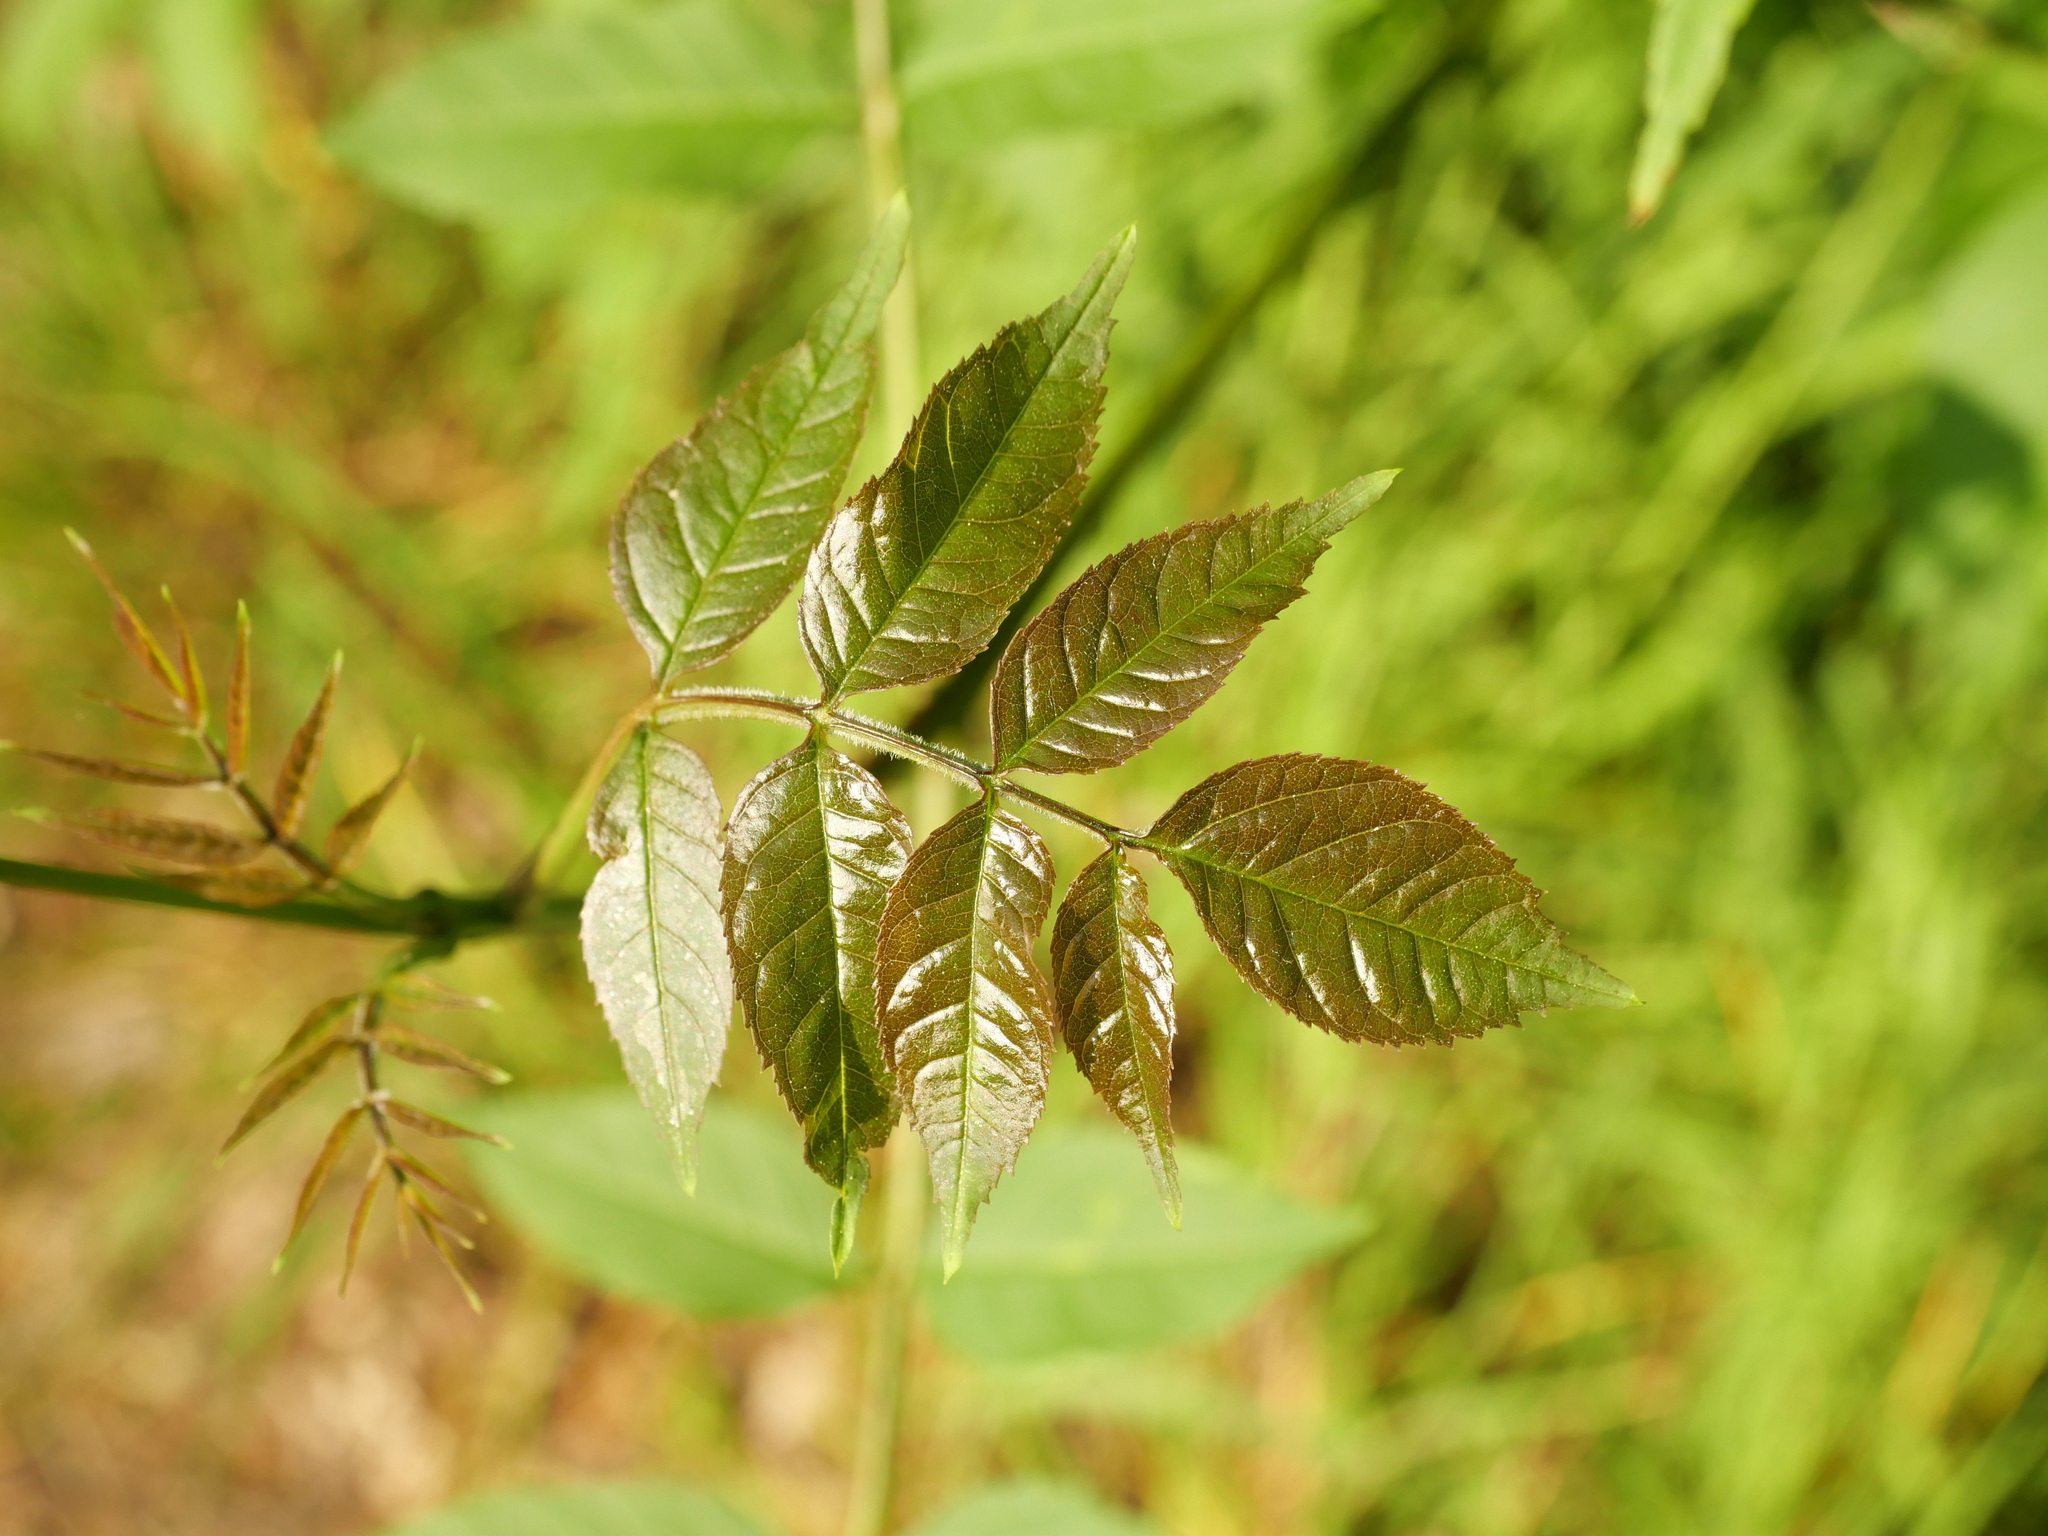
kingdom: Plantae
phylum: Tracheophyta
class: Magnoliopsida
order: Lamiales
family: Oleaceae
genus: Fraxinus
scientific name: Fraxinus excelsior
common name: European ash
